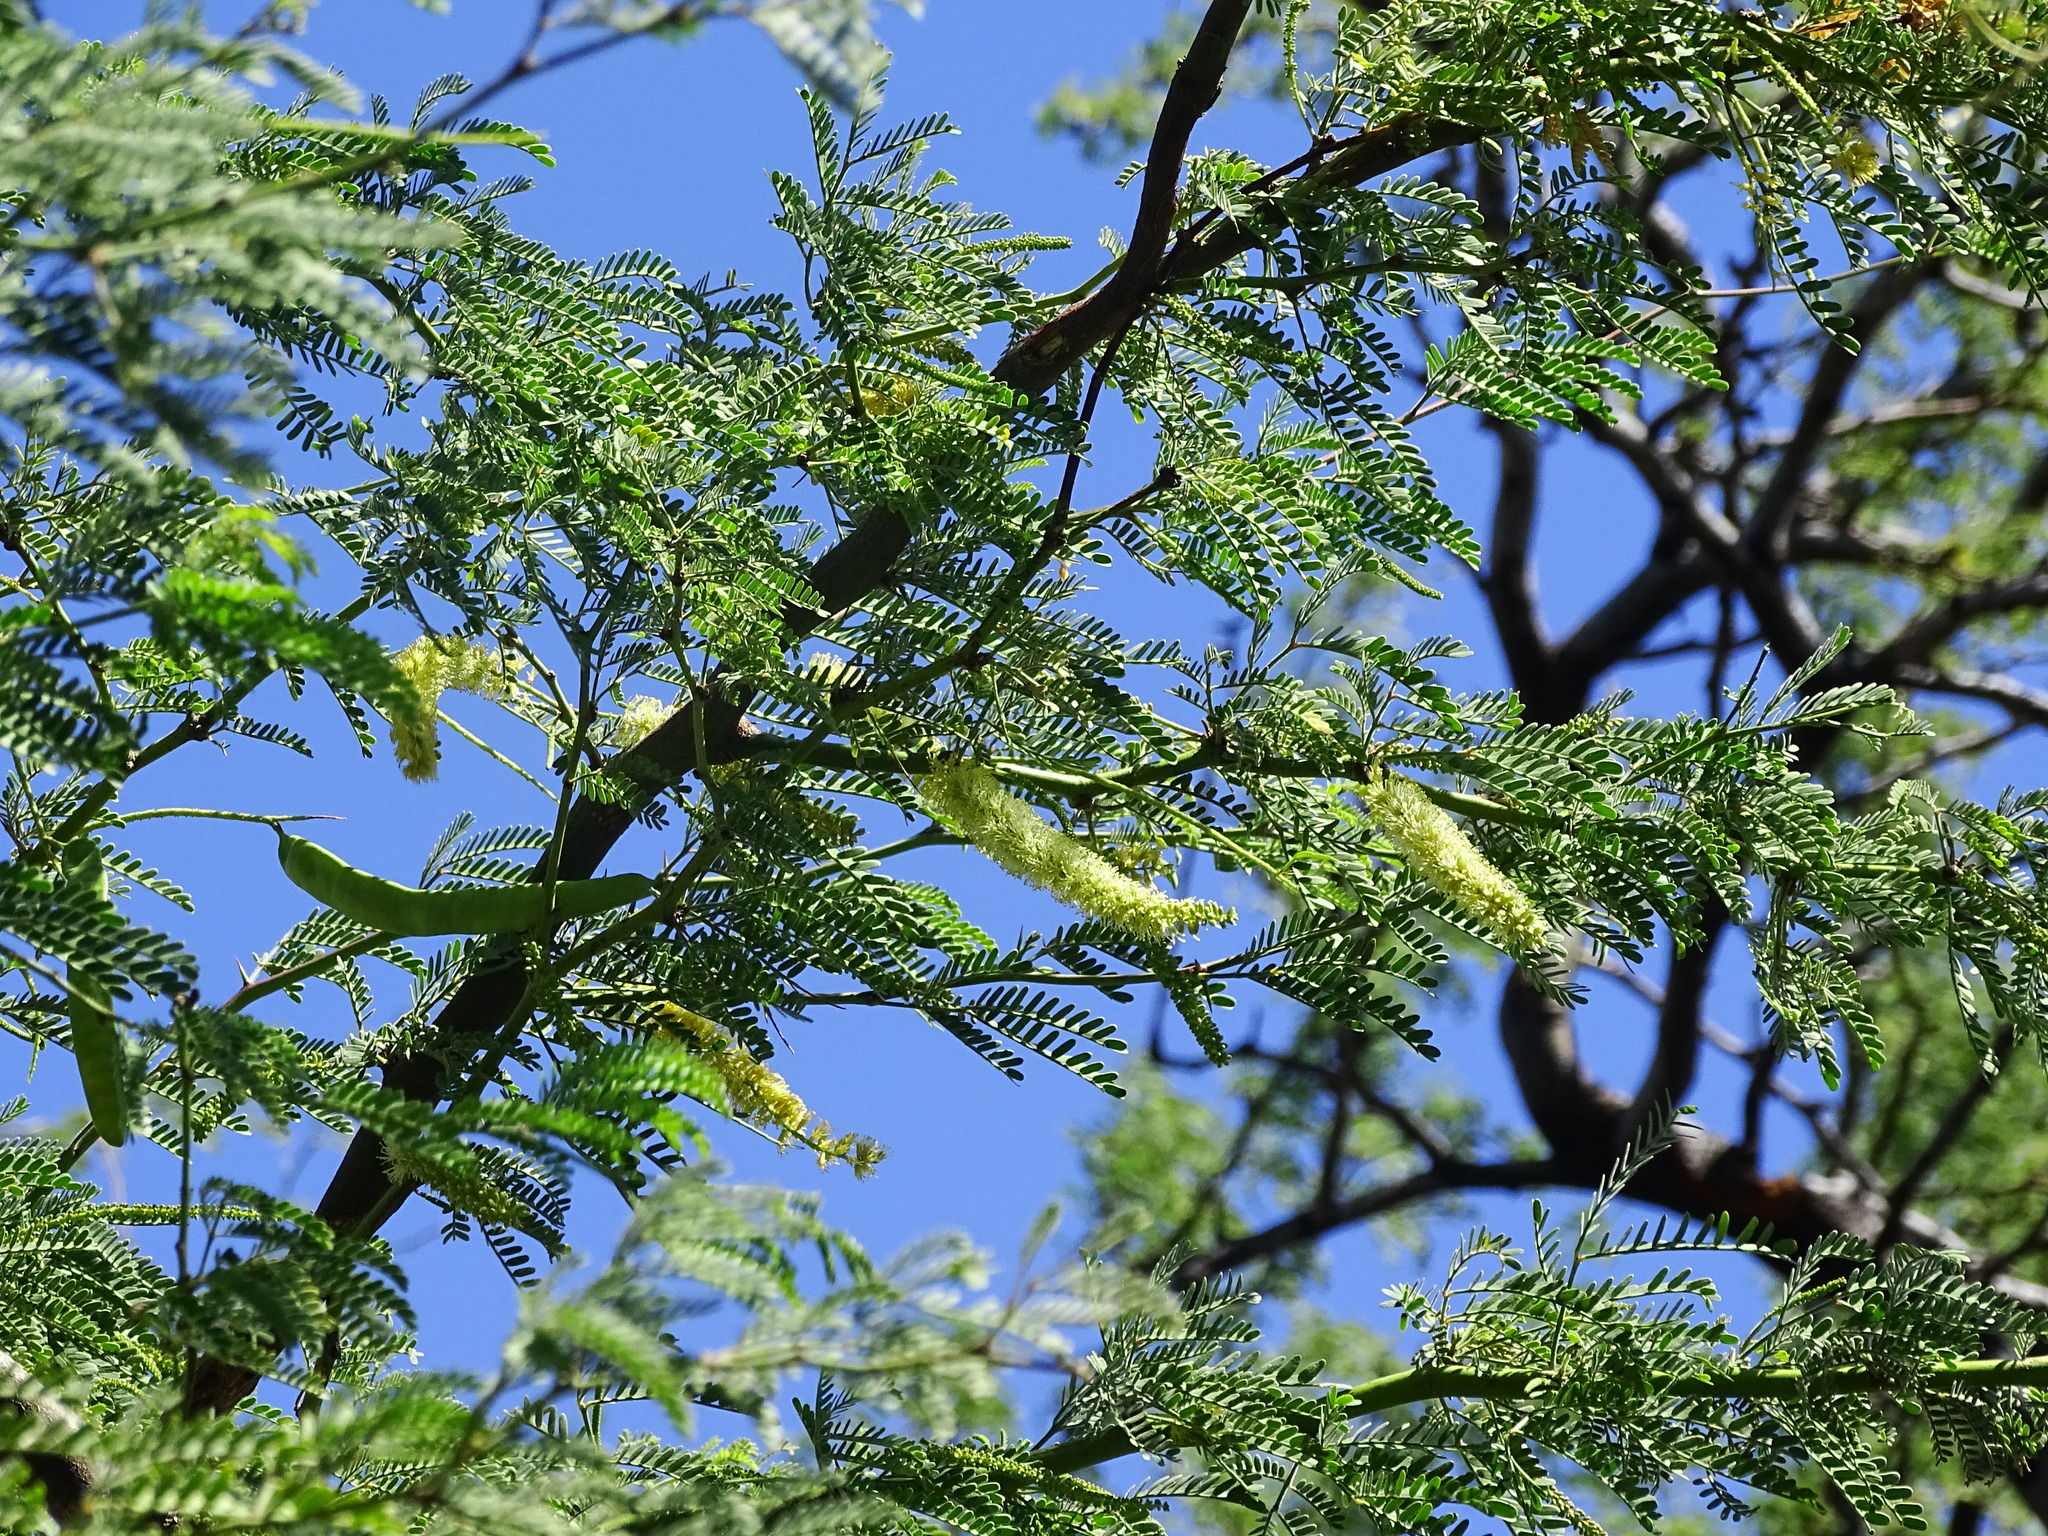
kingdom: Plantae
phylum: Tracheophyta
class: Magnoliopsida
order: Fabales
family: Fabaceae
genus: Prosopis
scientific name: Prosopis pallida
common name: Mesquite
